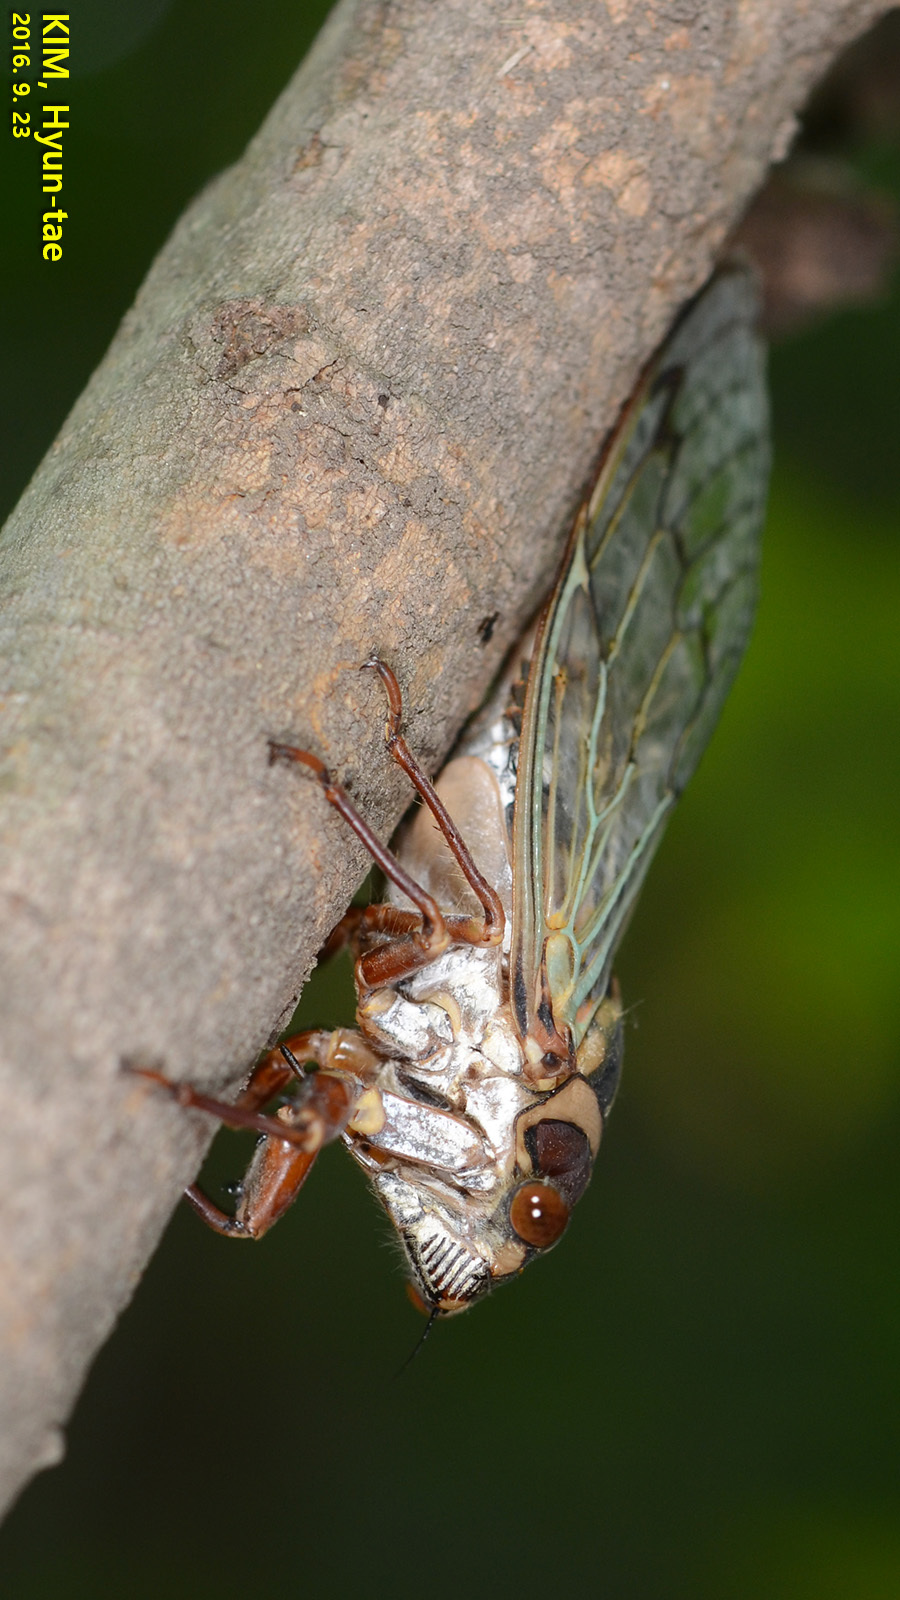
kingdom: Animalia
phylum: Arthropoda
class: Insecta
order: Hemiptera
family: Cicadidae
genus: Auritibicen
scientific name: Auritibicen intermedius
